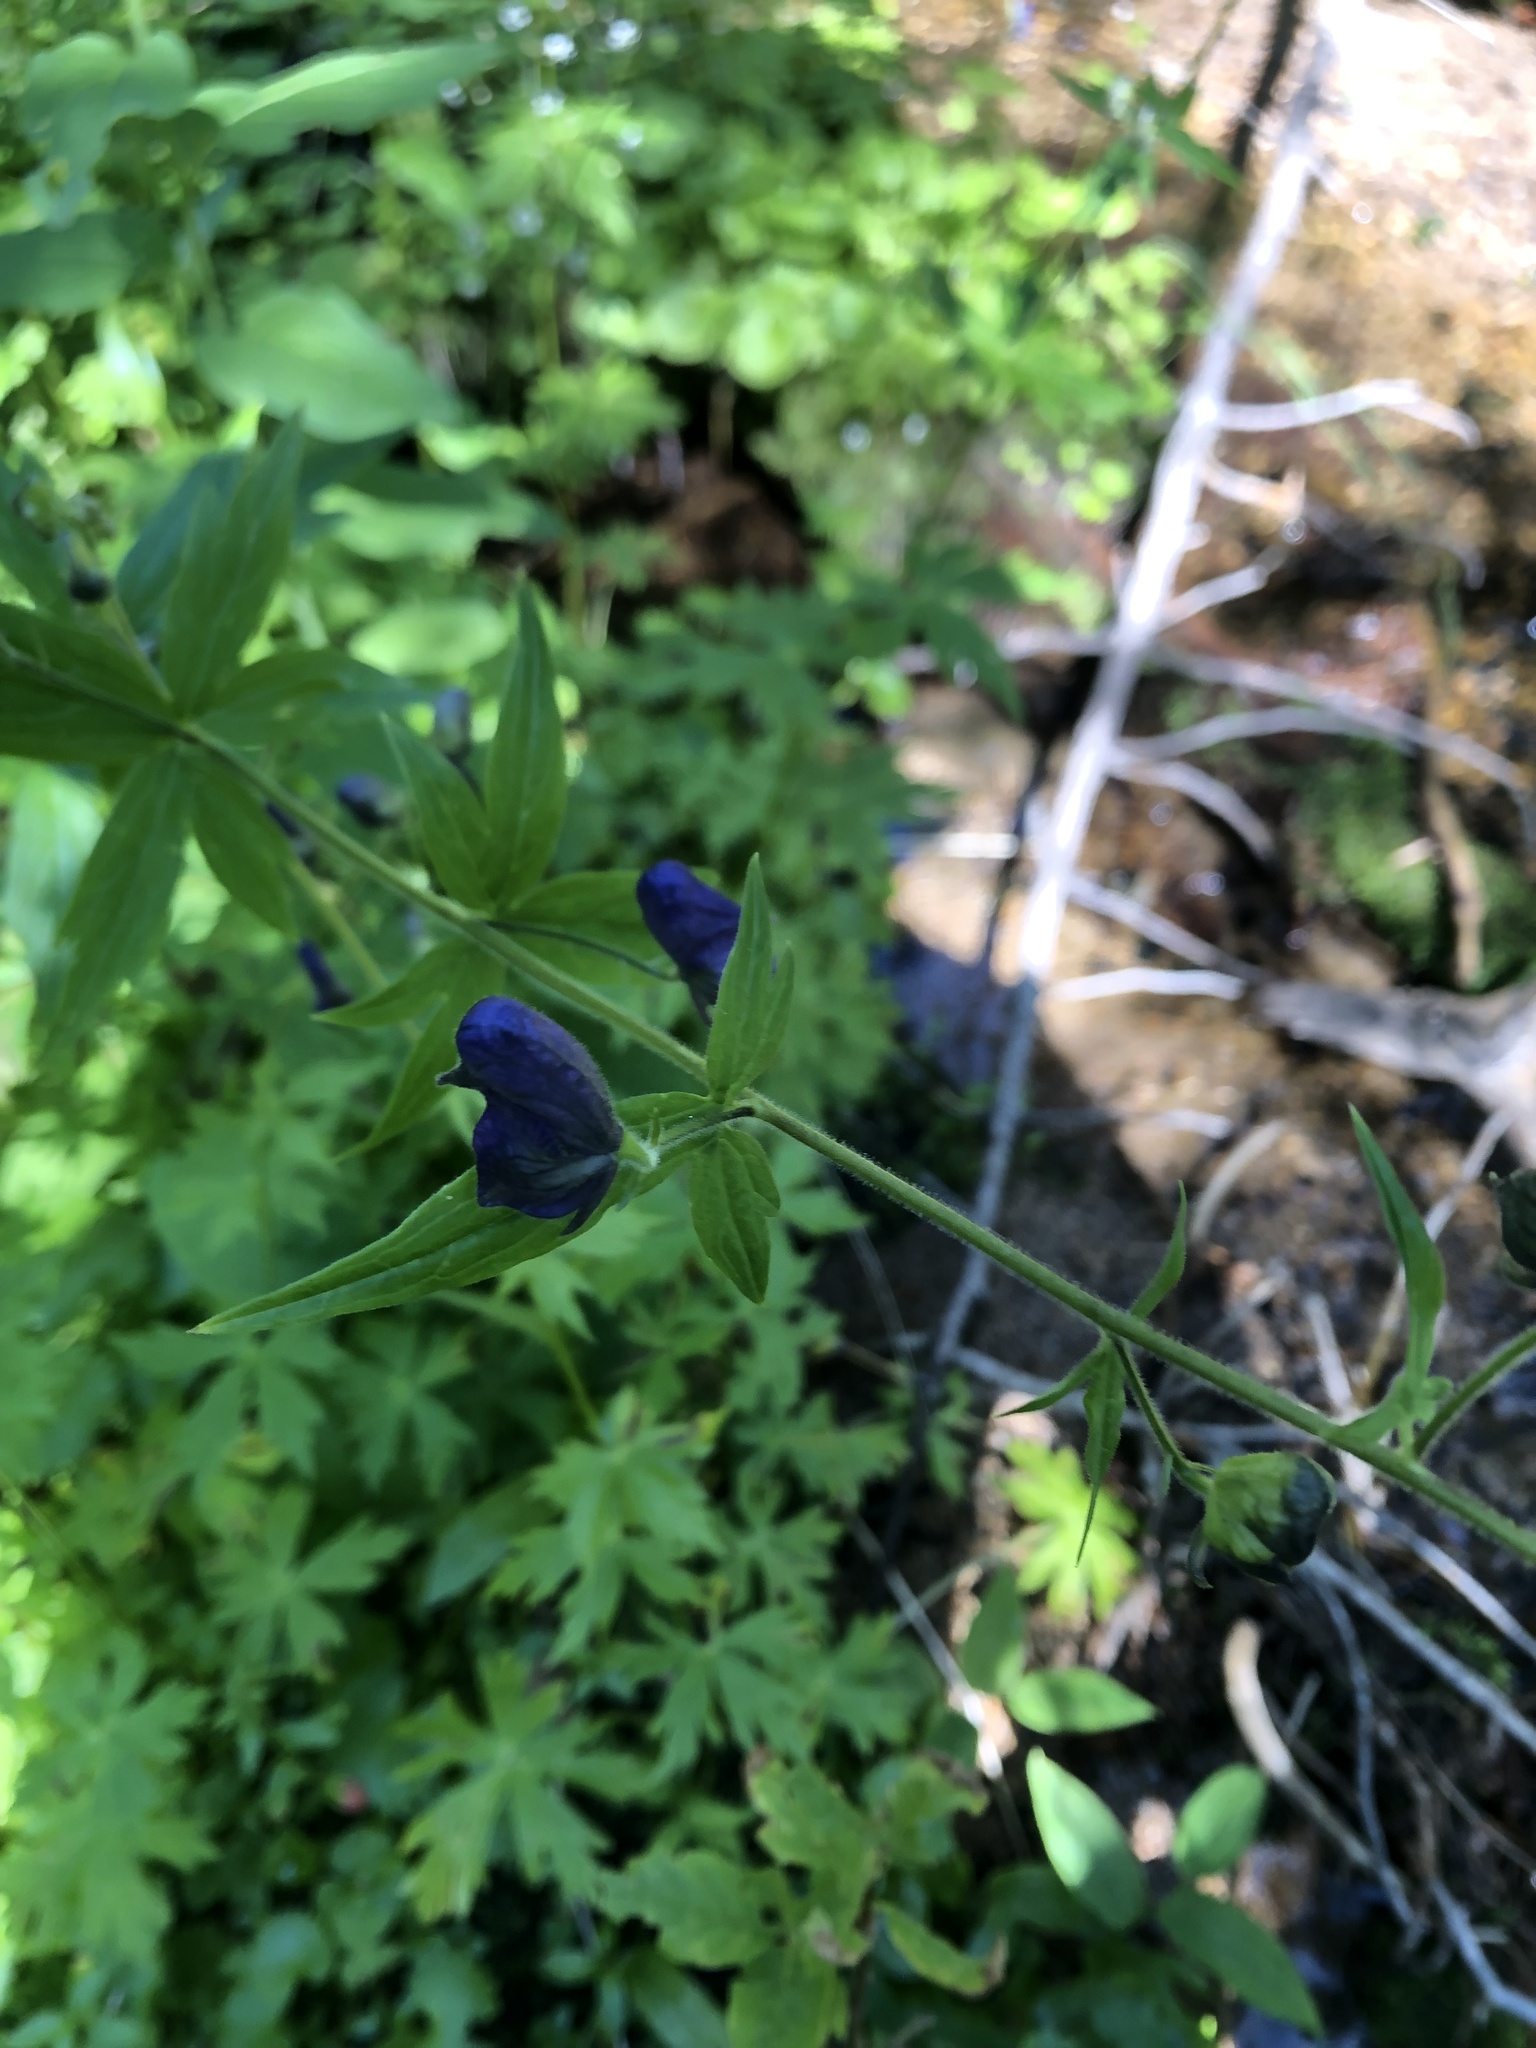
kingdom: Plantae
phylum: Tracheophyta
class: Magnoliopsida
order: Ranunculales
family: Ranunculaceae
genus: Aconitum
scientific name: Aconitum columbianum
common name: Columbia aconite
